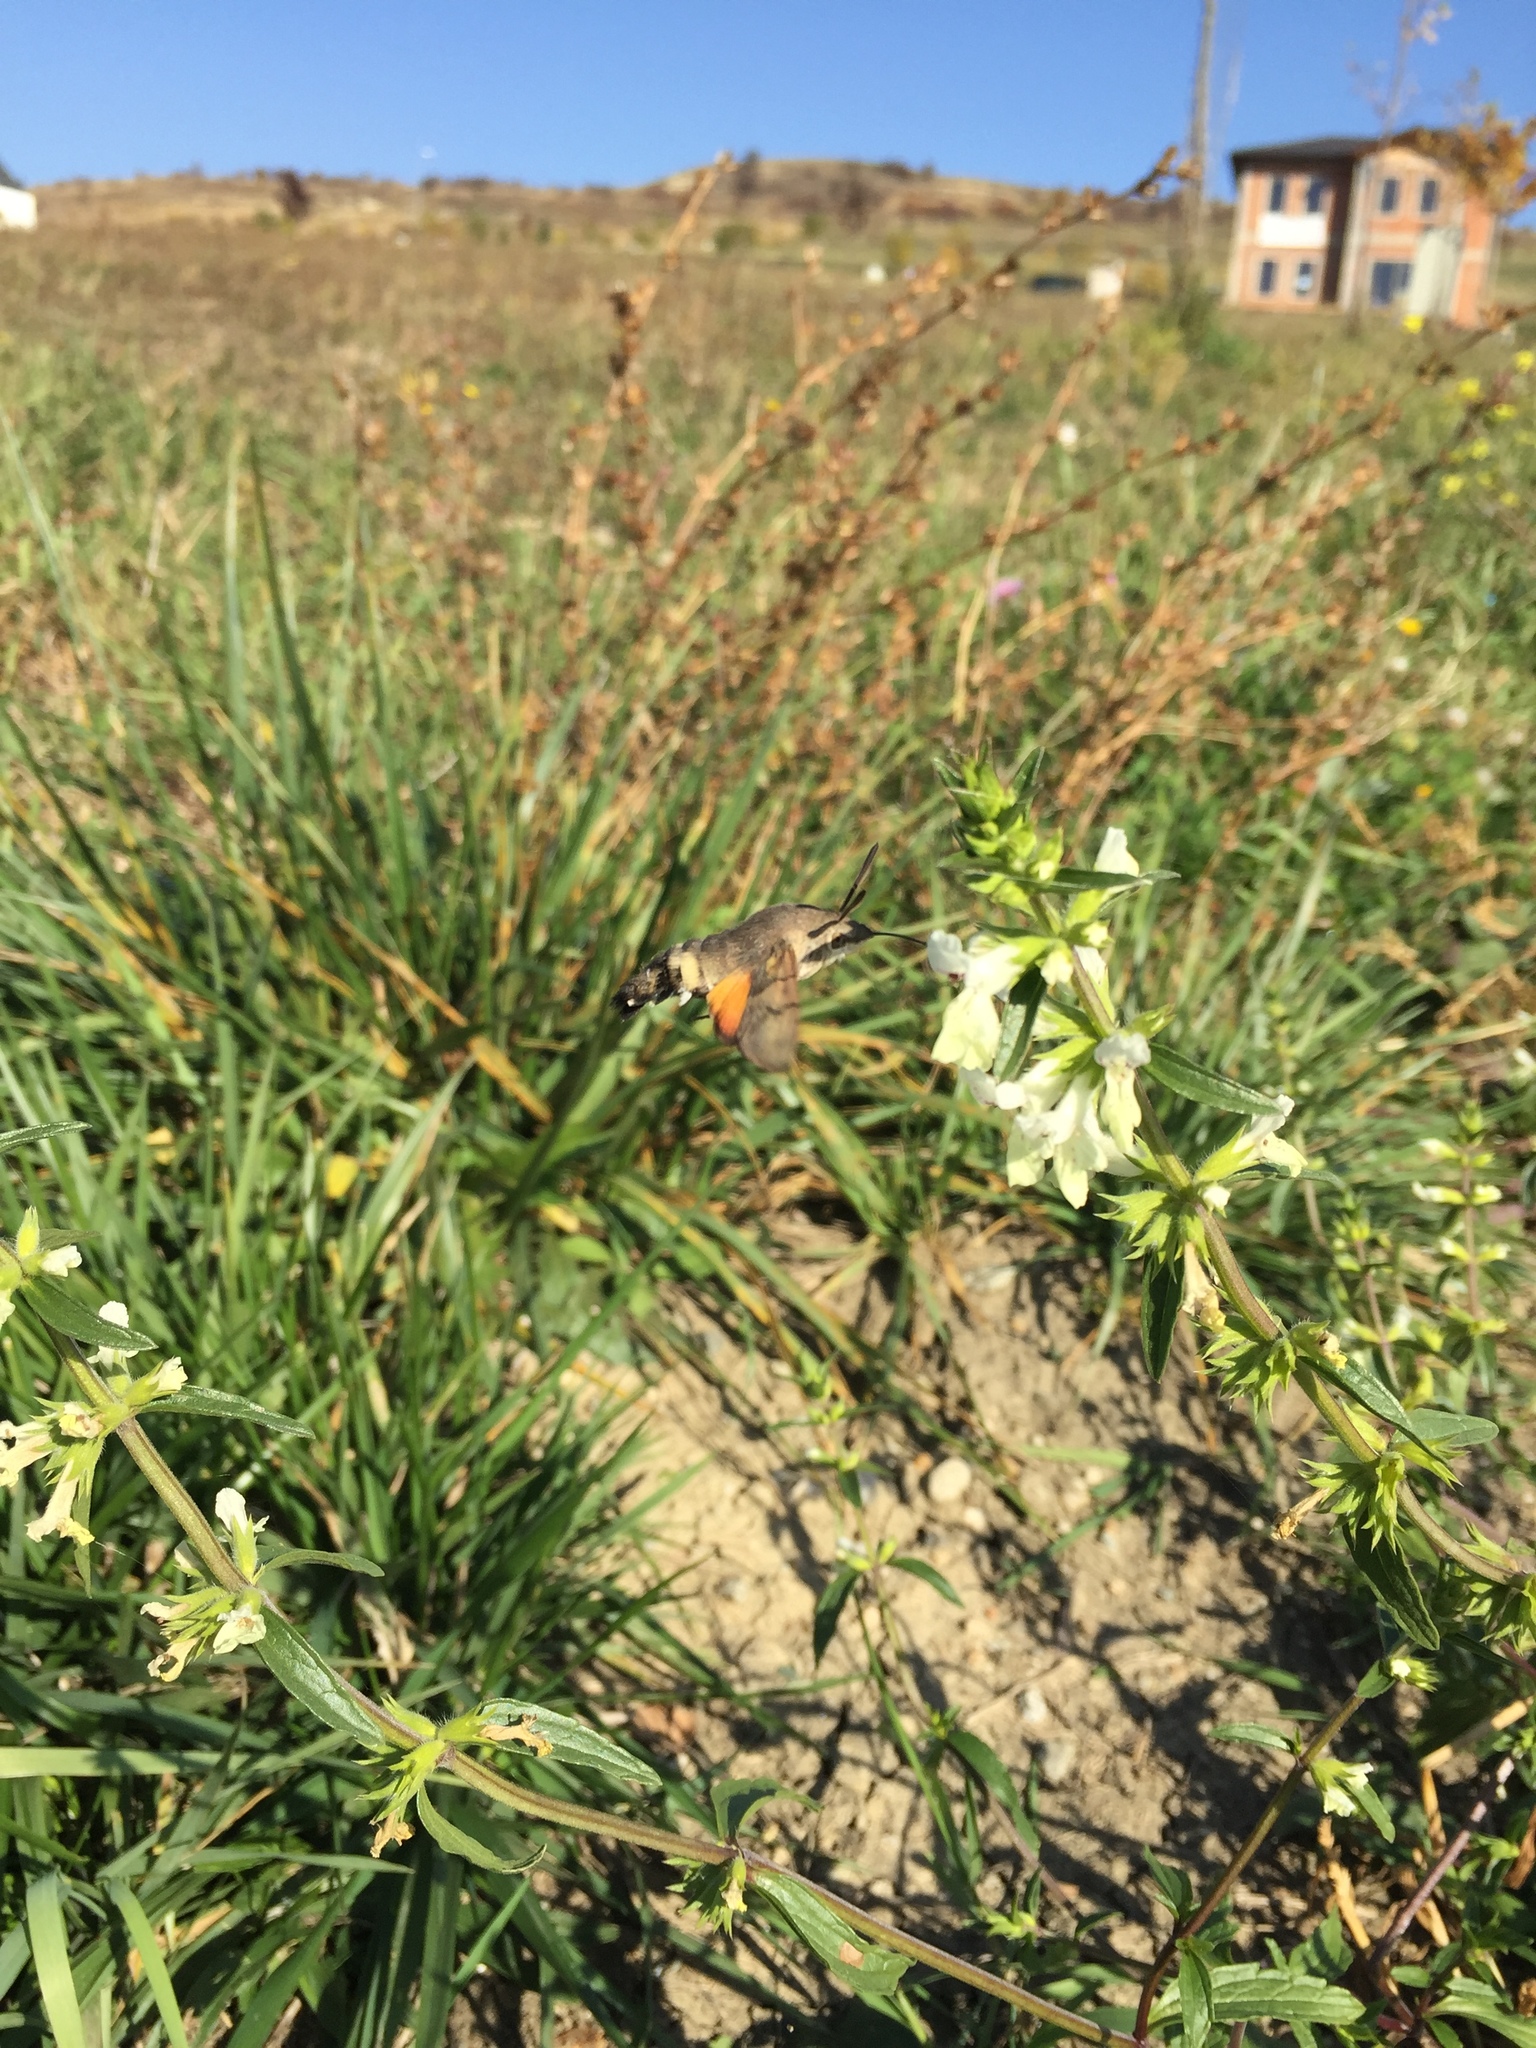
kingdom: Animalia
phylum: Arthropoda
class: Insecta
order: Lepidoptera
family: Sphingidae
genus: Macroglossum
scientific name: Macroglossum stellatarum
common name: Humming-bird hawk-moth
